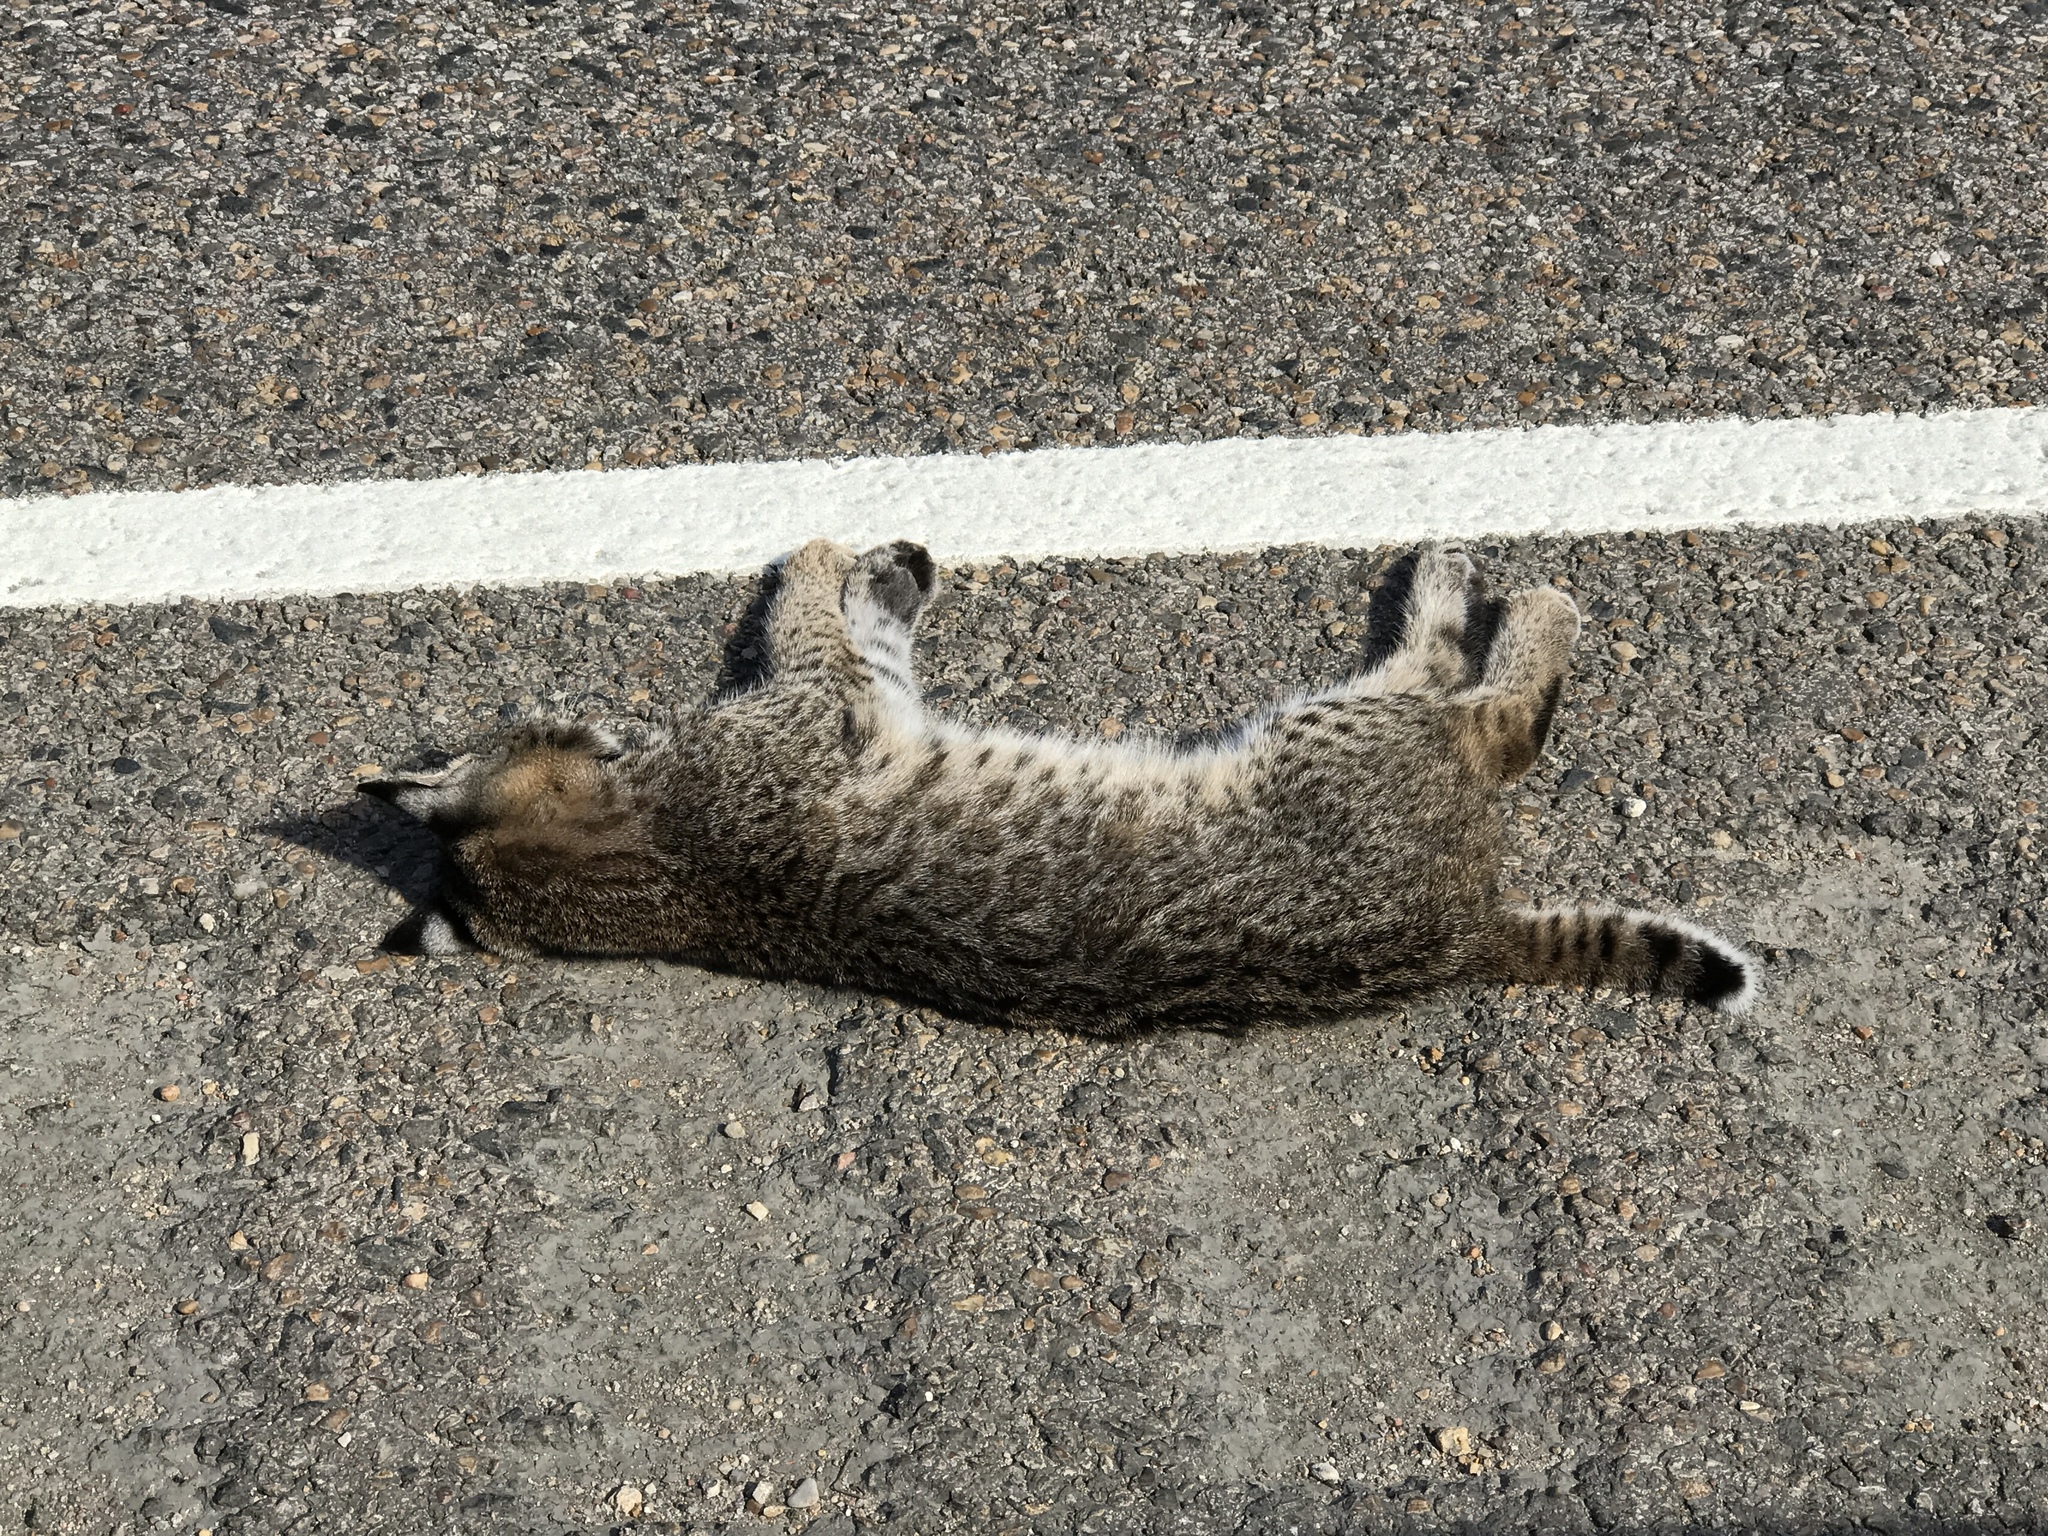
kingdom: Animalia
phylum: Chordata
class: Mammalia
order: Carnivora
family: Felidae
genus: Lynx
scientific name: Lynx rufus
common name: Bobcat
